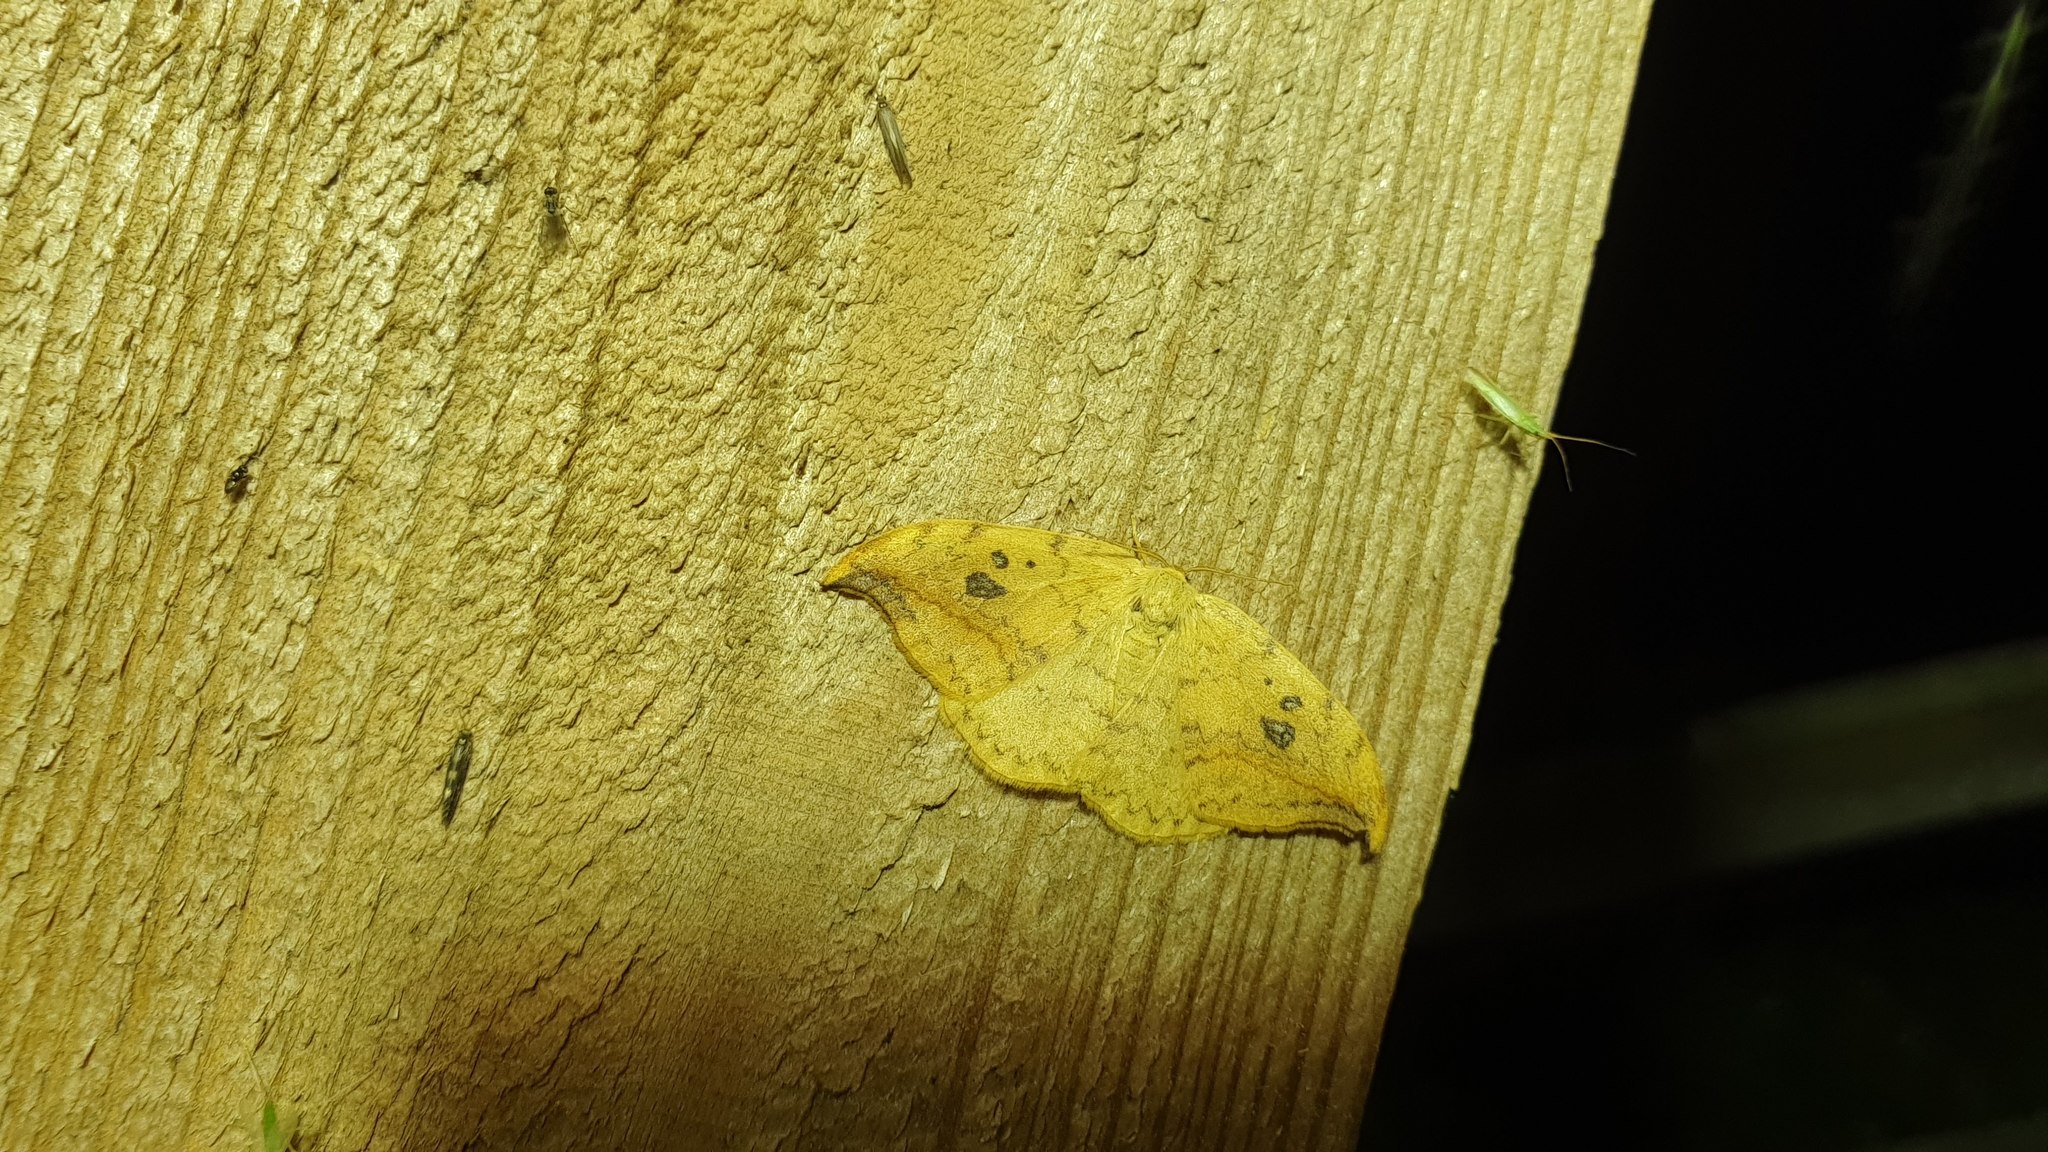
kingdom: Animalia
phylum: Arthropoda
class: Insecta
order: Lepidoptera
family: Drepanidae
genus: Drepana
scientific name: Drepana falcataria
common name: Pebble hook-tip
